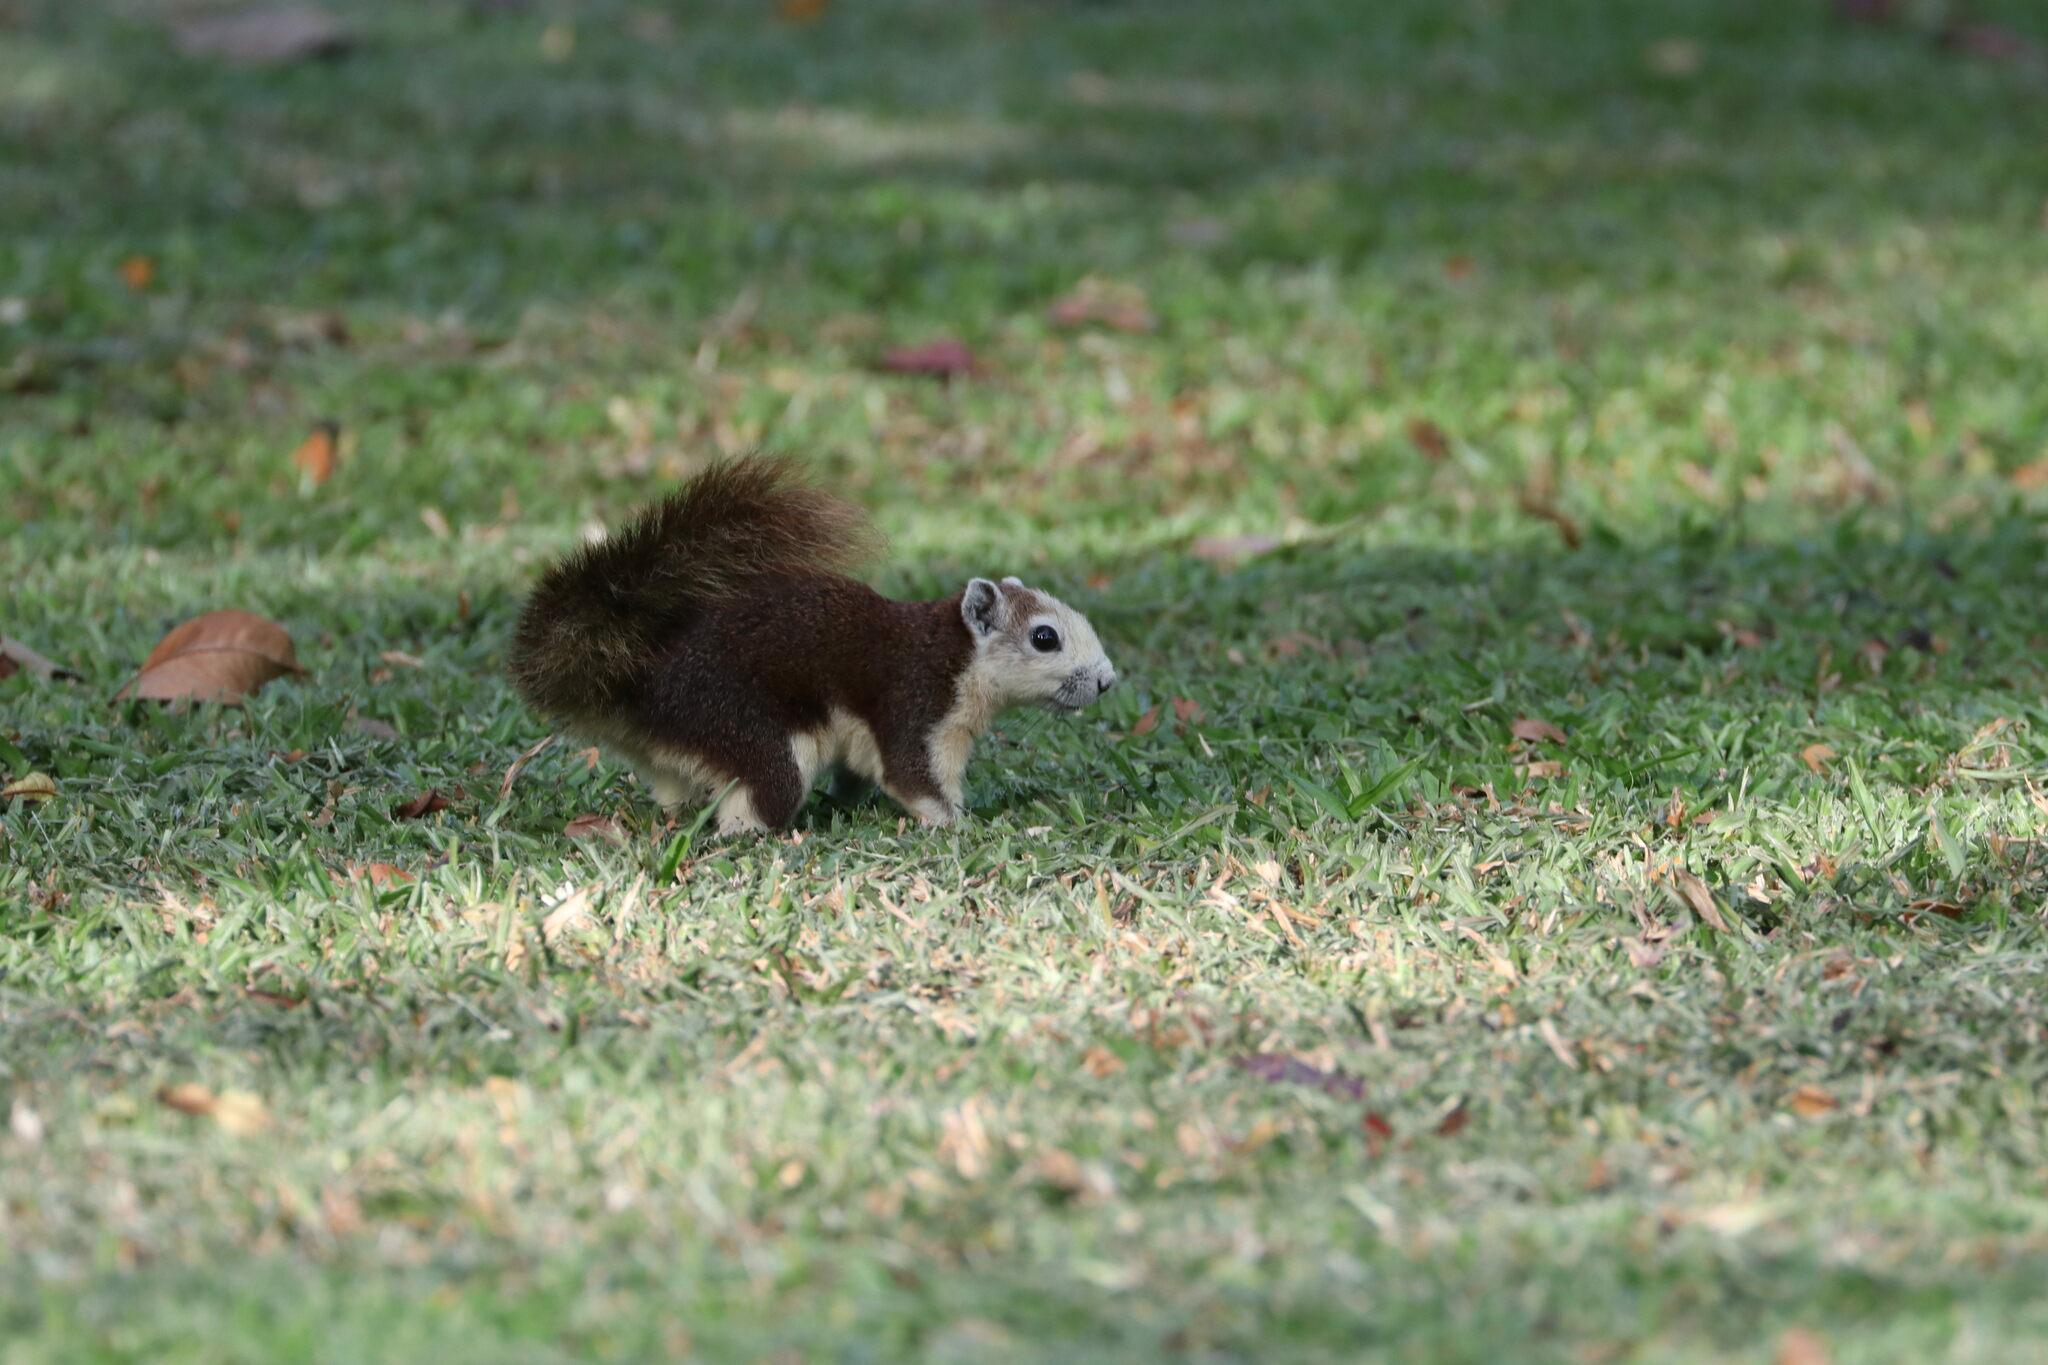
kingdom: Animalia
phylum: Chordata
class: Mammalia
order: Rodentia
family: Sciuridae
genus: Callosciurus
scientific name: Callosciurus finlaysonii
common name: Finlayson's squirrel
